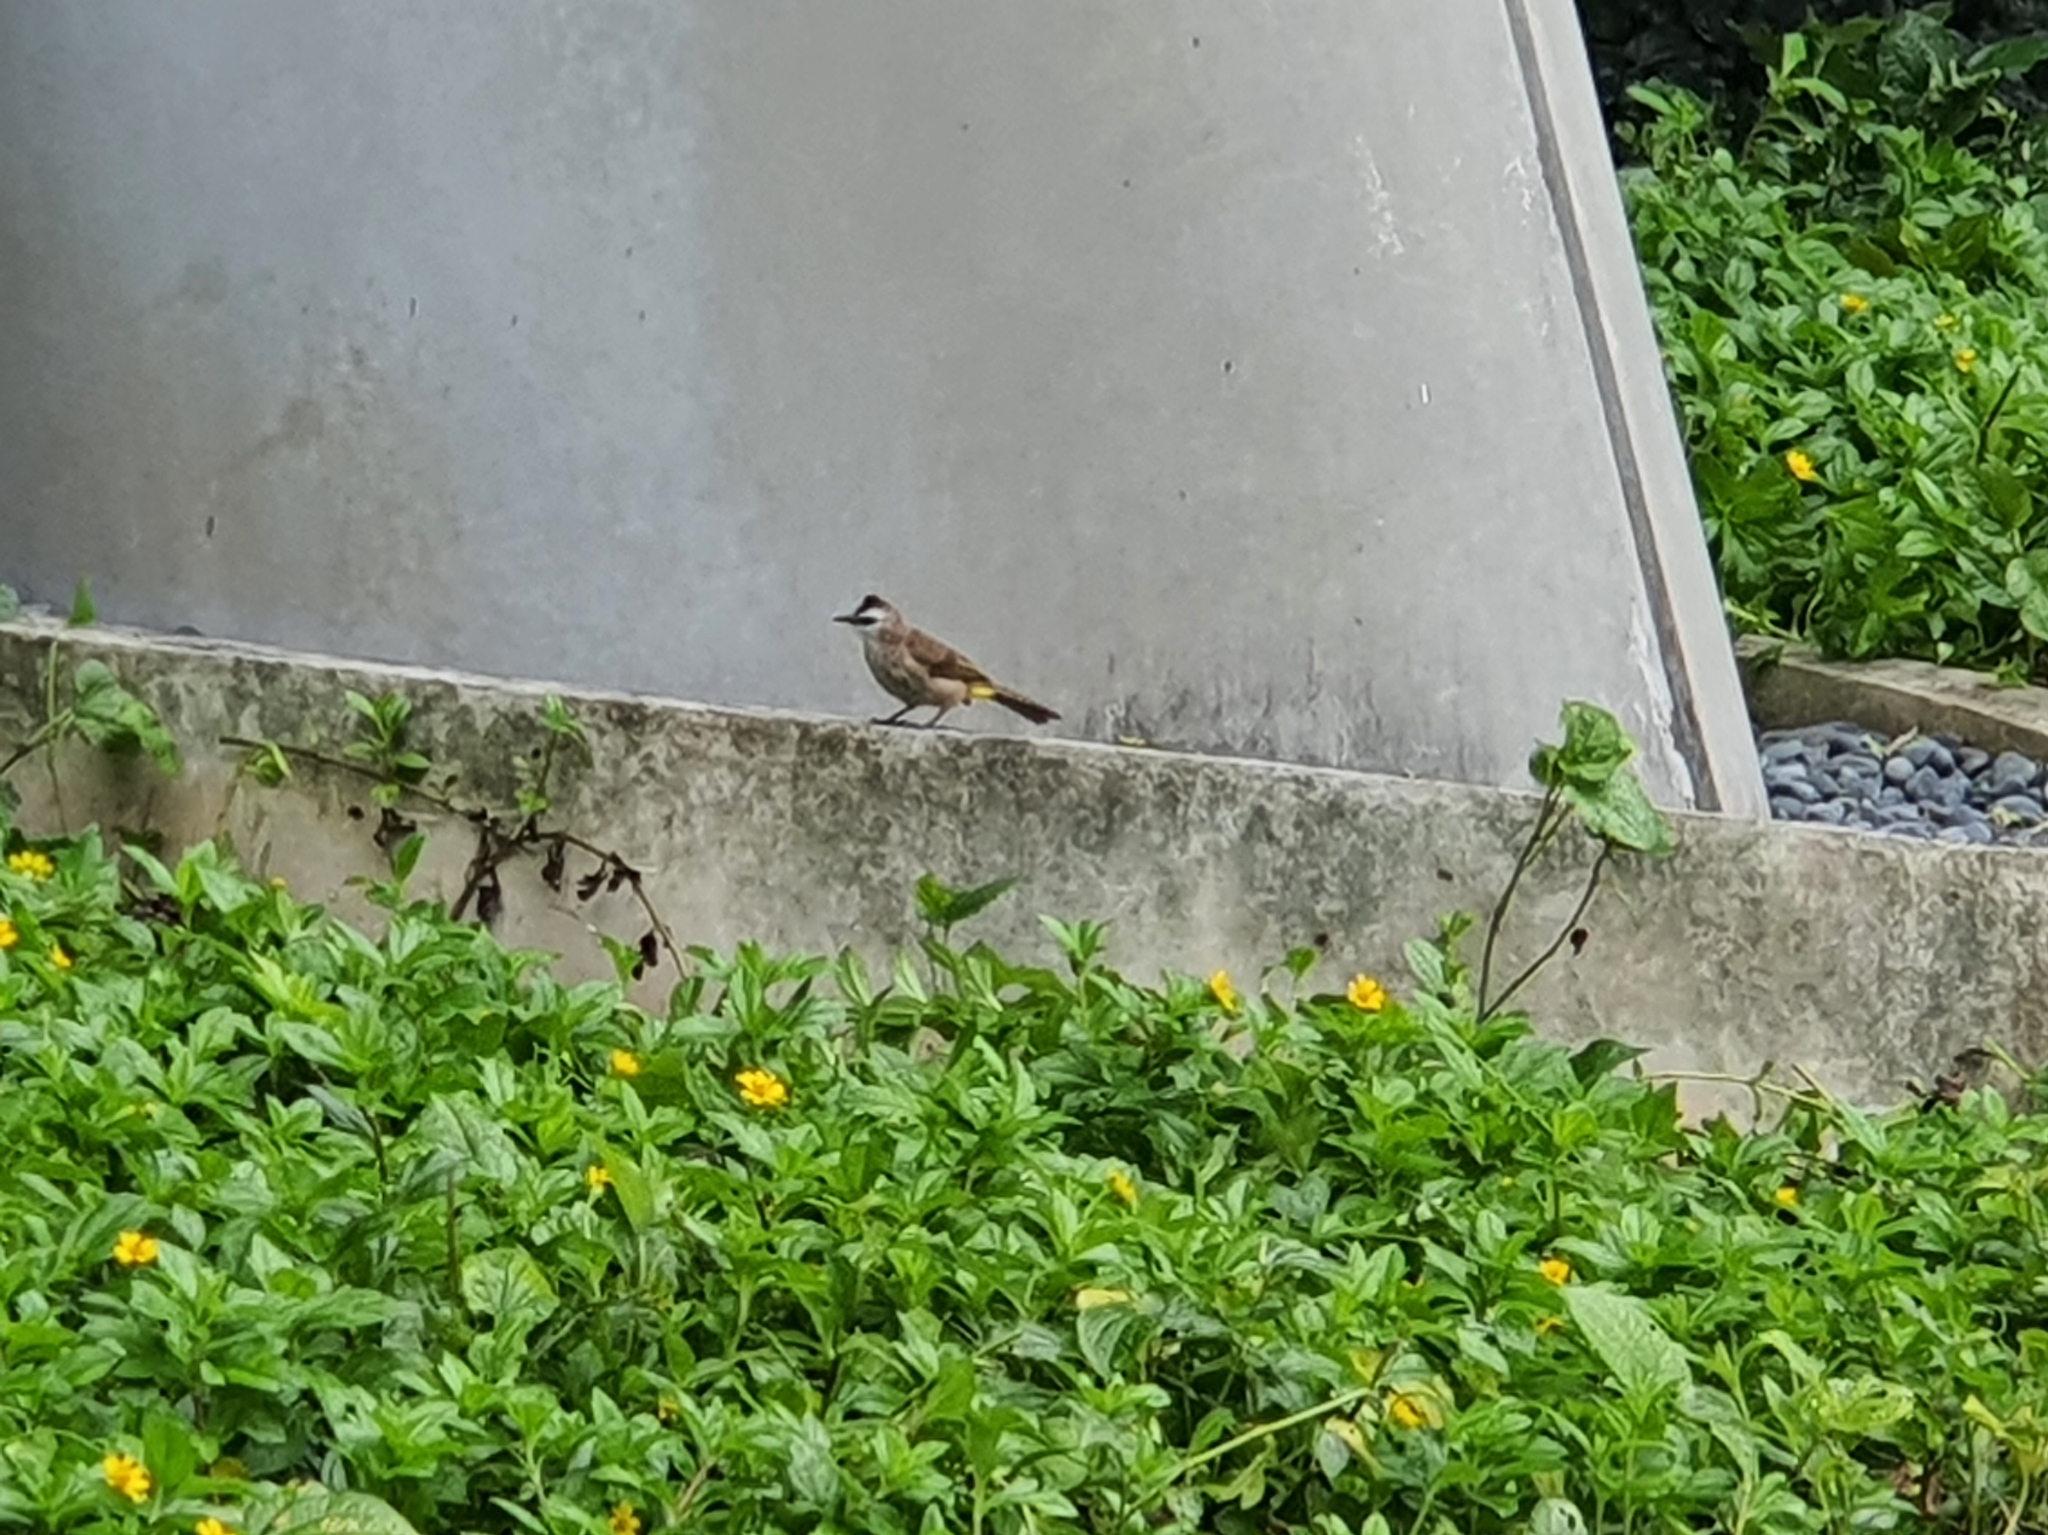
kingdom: Animalia
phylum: Chordata
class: Aves
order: Passeriformes
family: Pycnonotidae
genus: Pycnonotus
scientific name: Pycnonotus goiavier
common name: Yellow-vented bulbul
